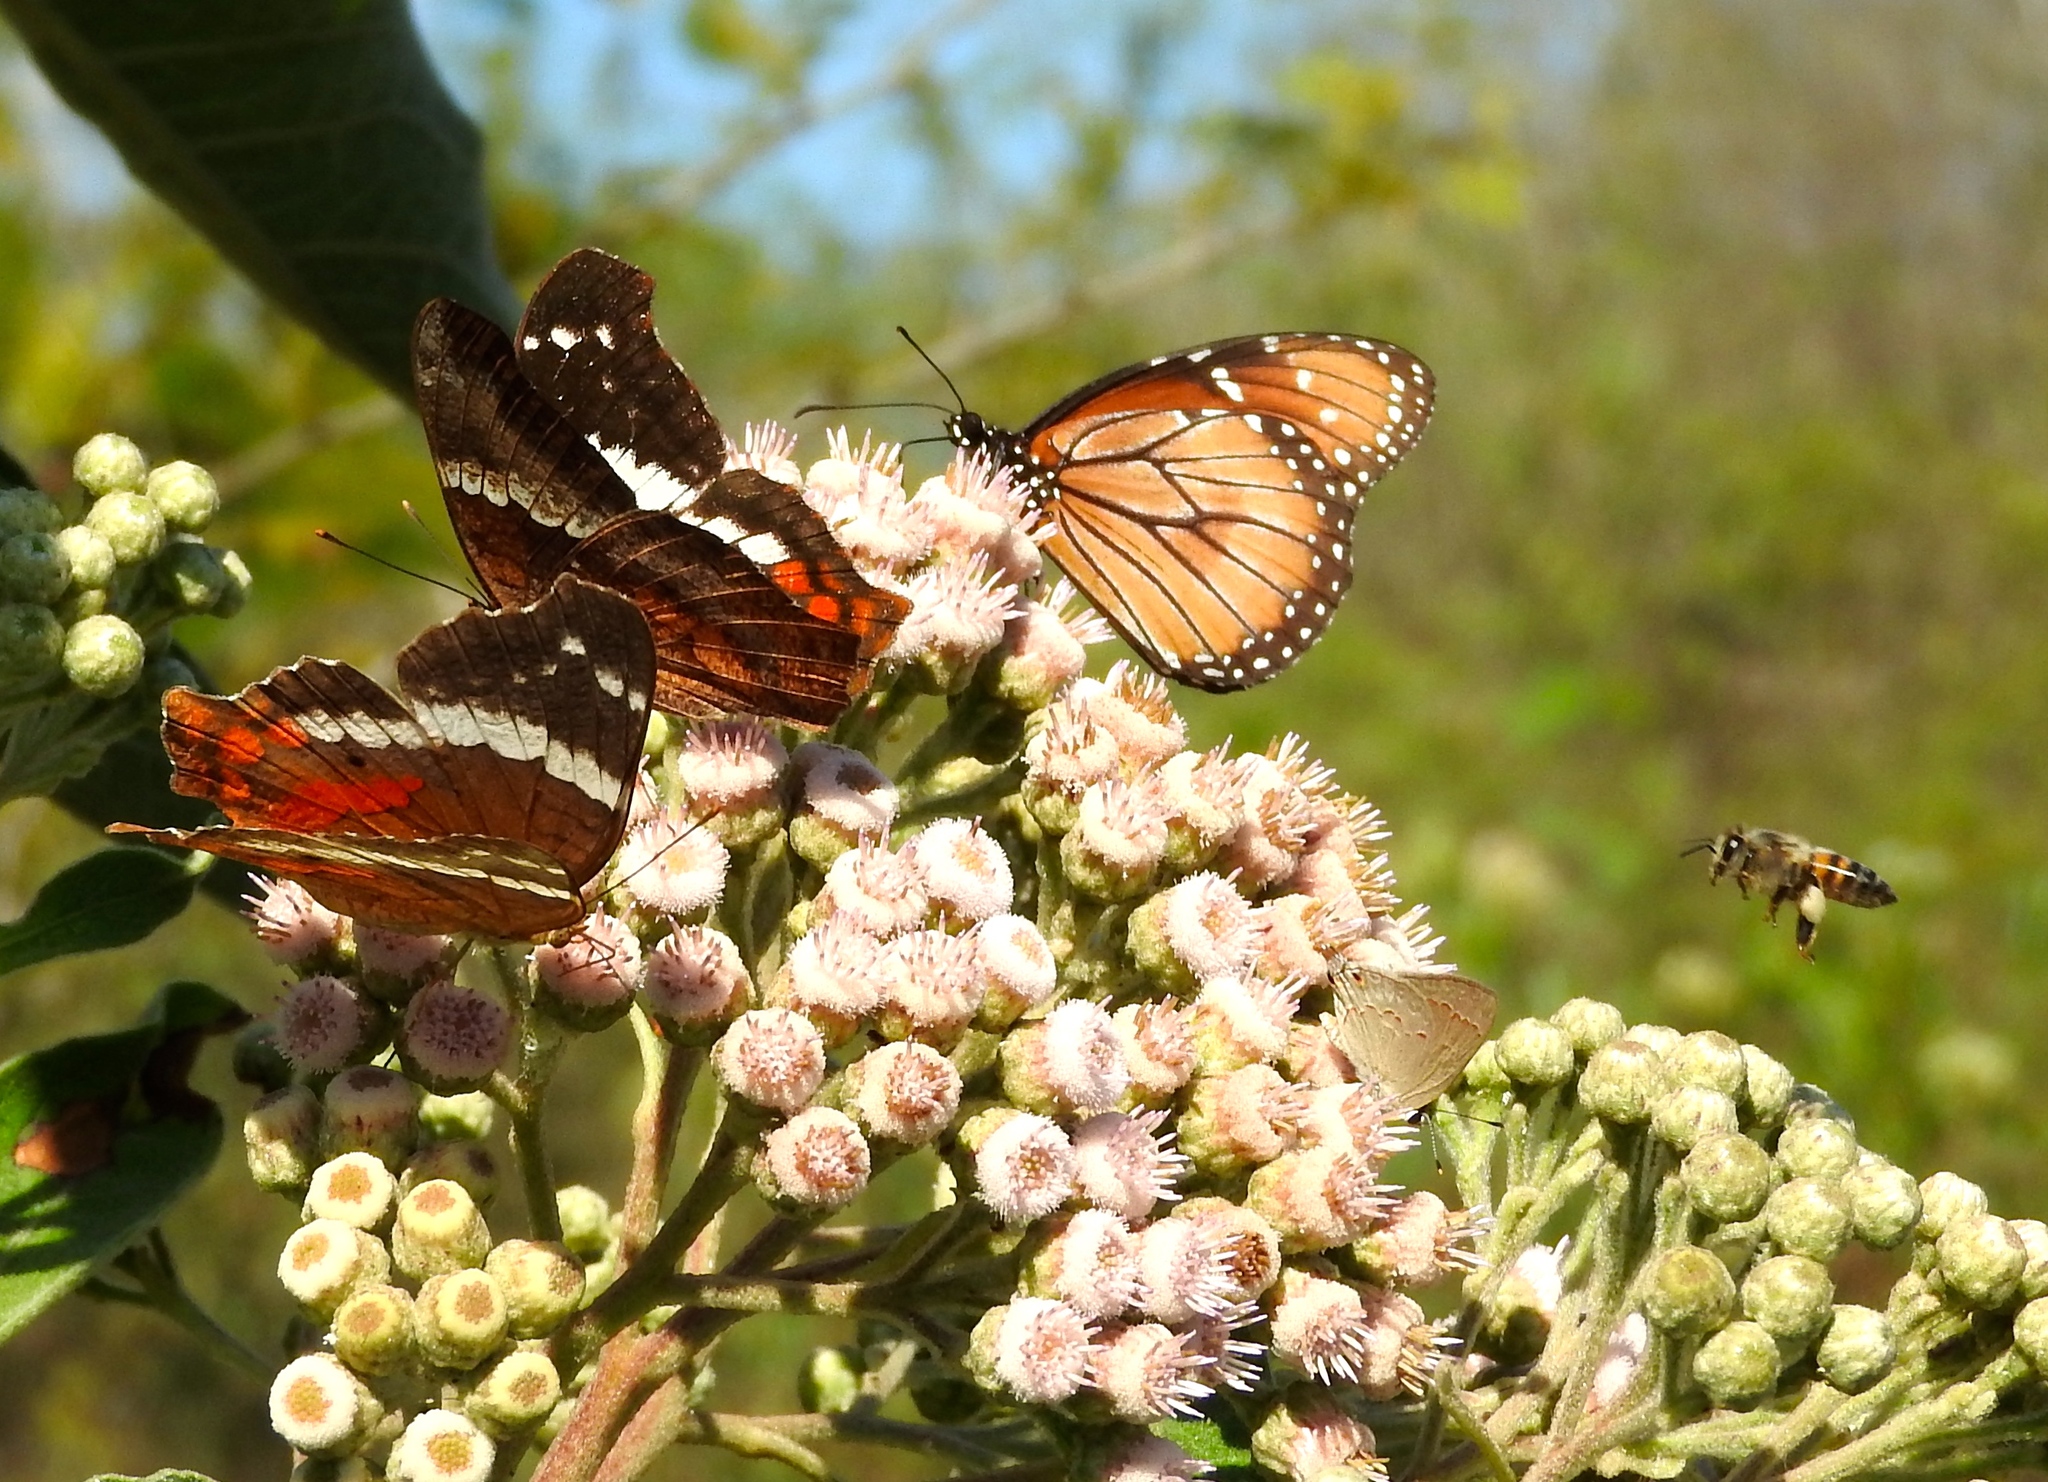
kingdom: Animalia
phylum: Arthropoda
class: Insecta
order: Lepidoptera
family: Nymphalidae
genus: Danaus
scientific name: Danaus eresimus
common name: Soldier
